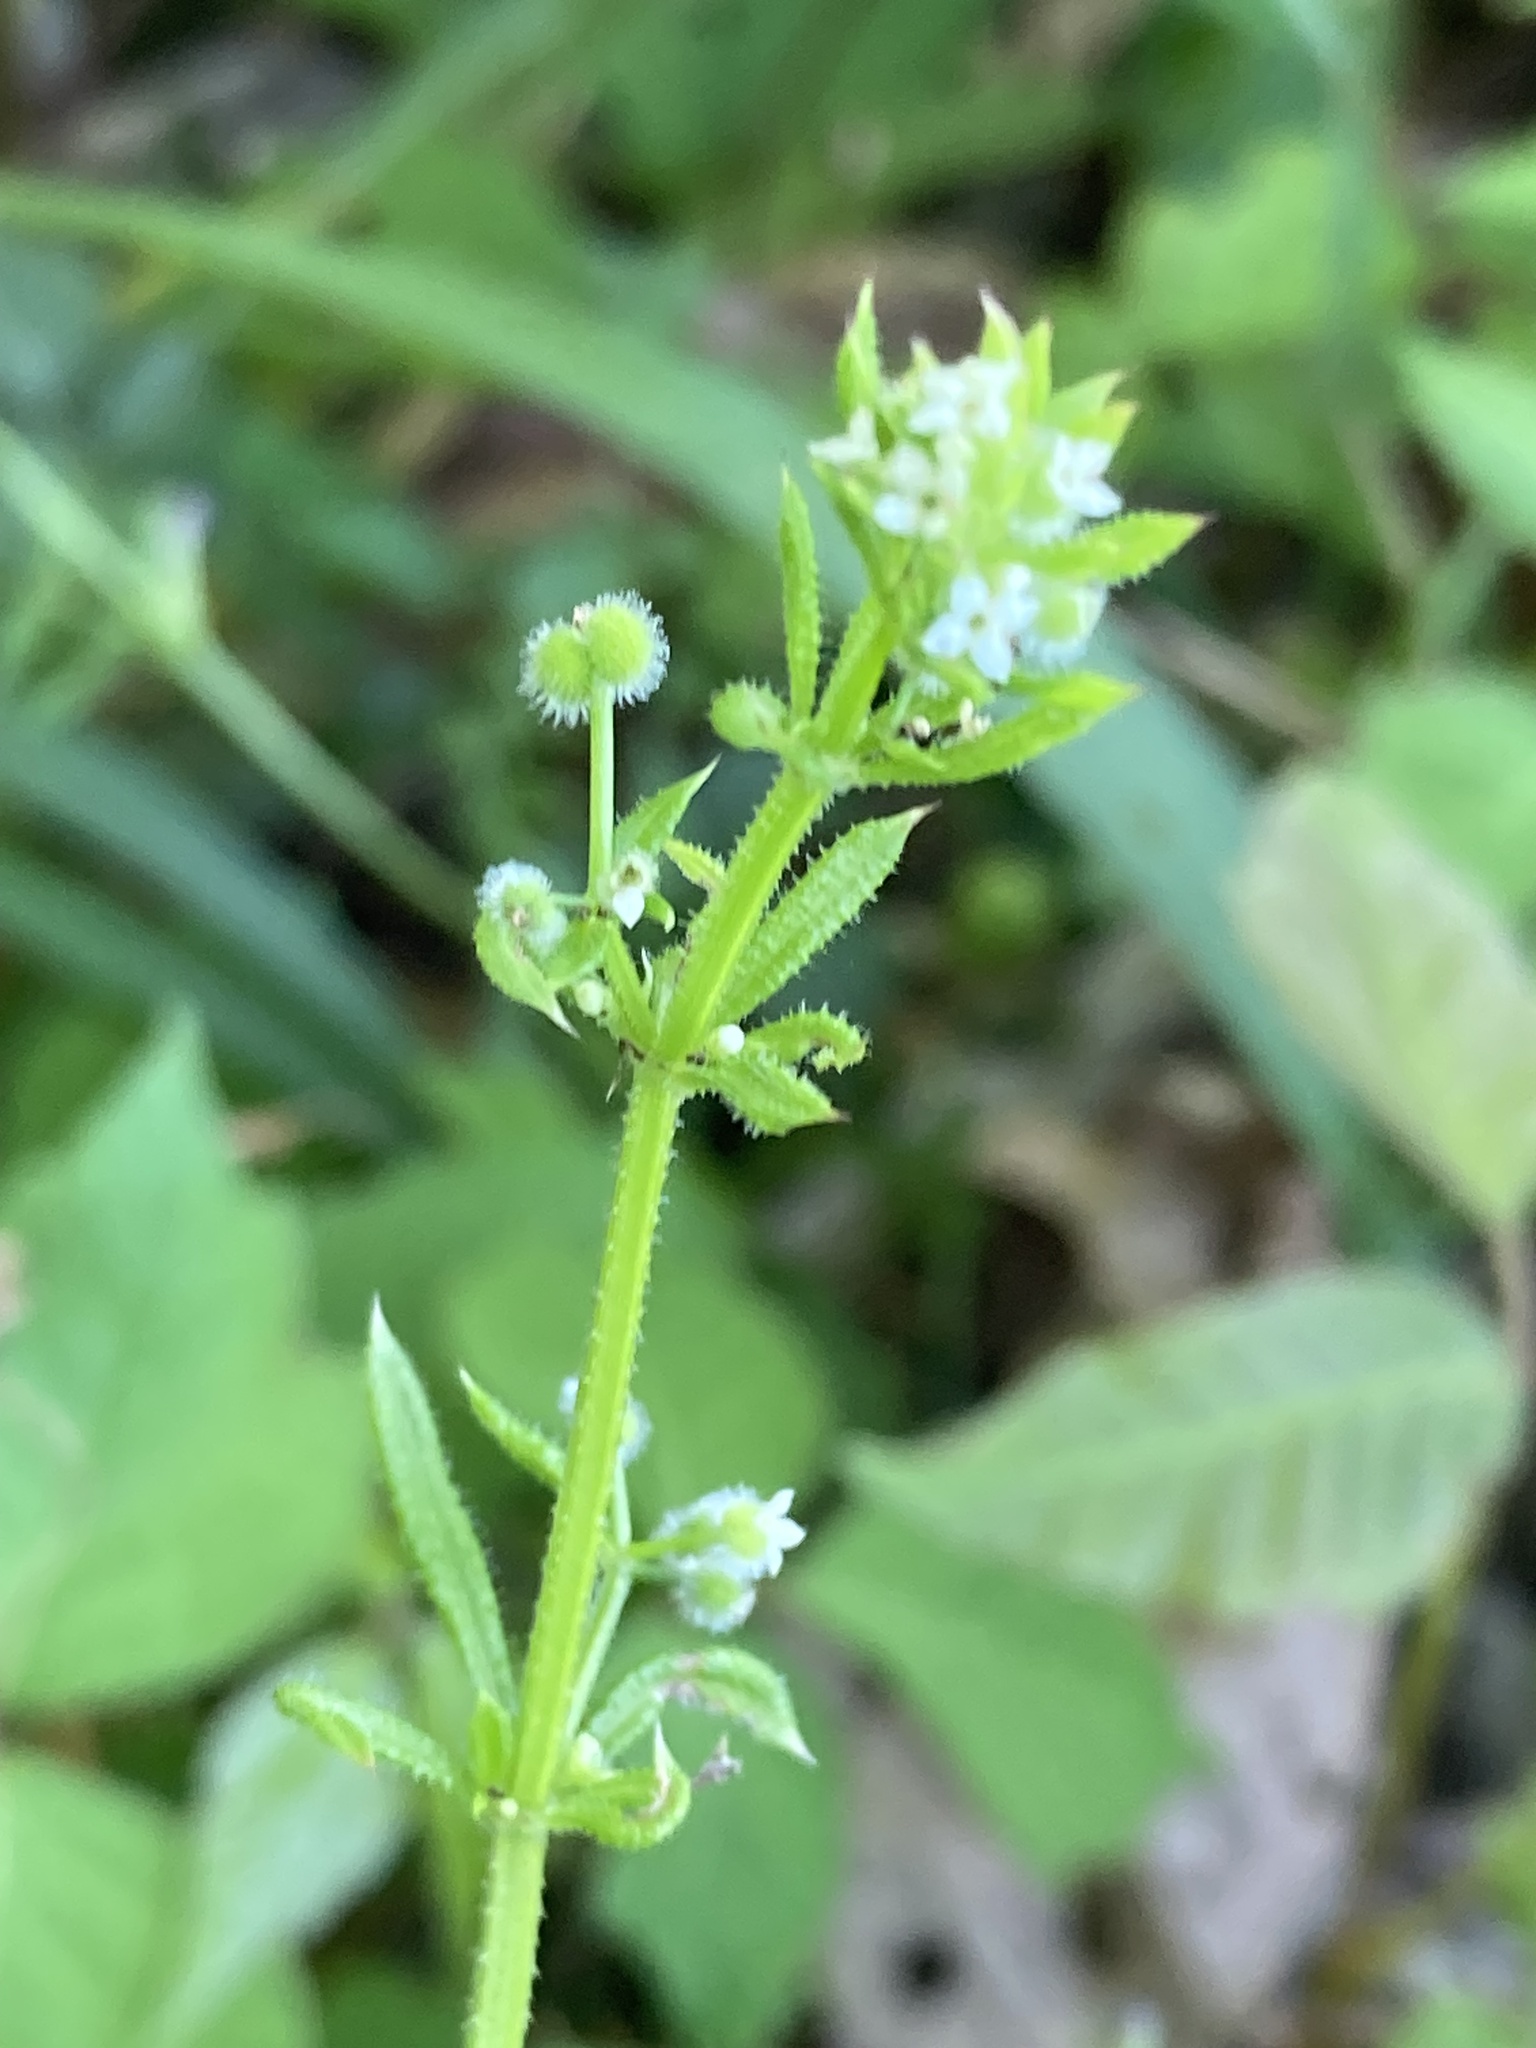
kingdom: Plantae
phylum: Tracheophyta
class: Magnoliopsida
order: Gentianales
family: Rubiaceae
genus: Galium
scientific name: Galium aparine
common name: Cleavers
